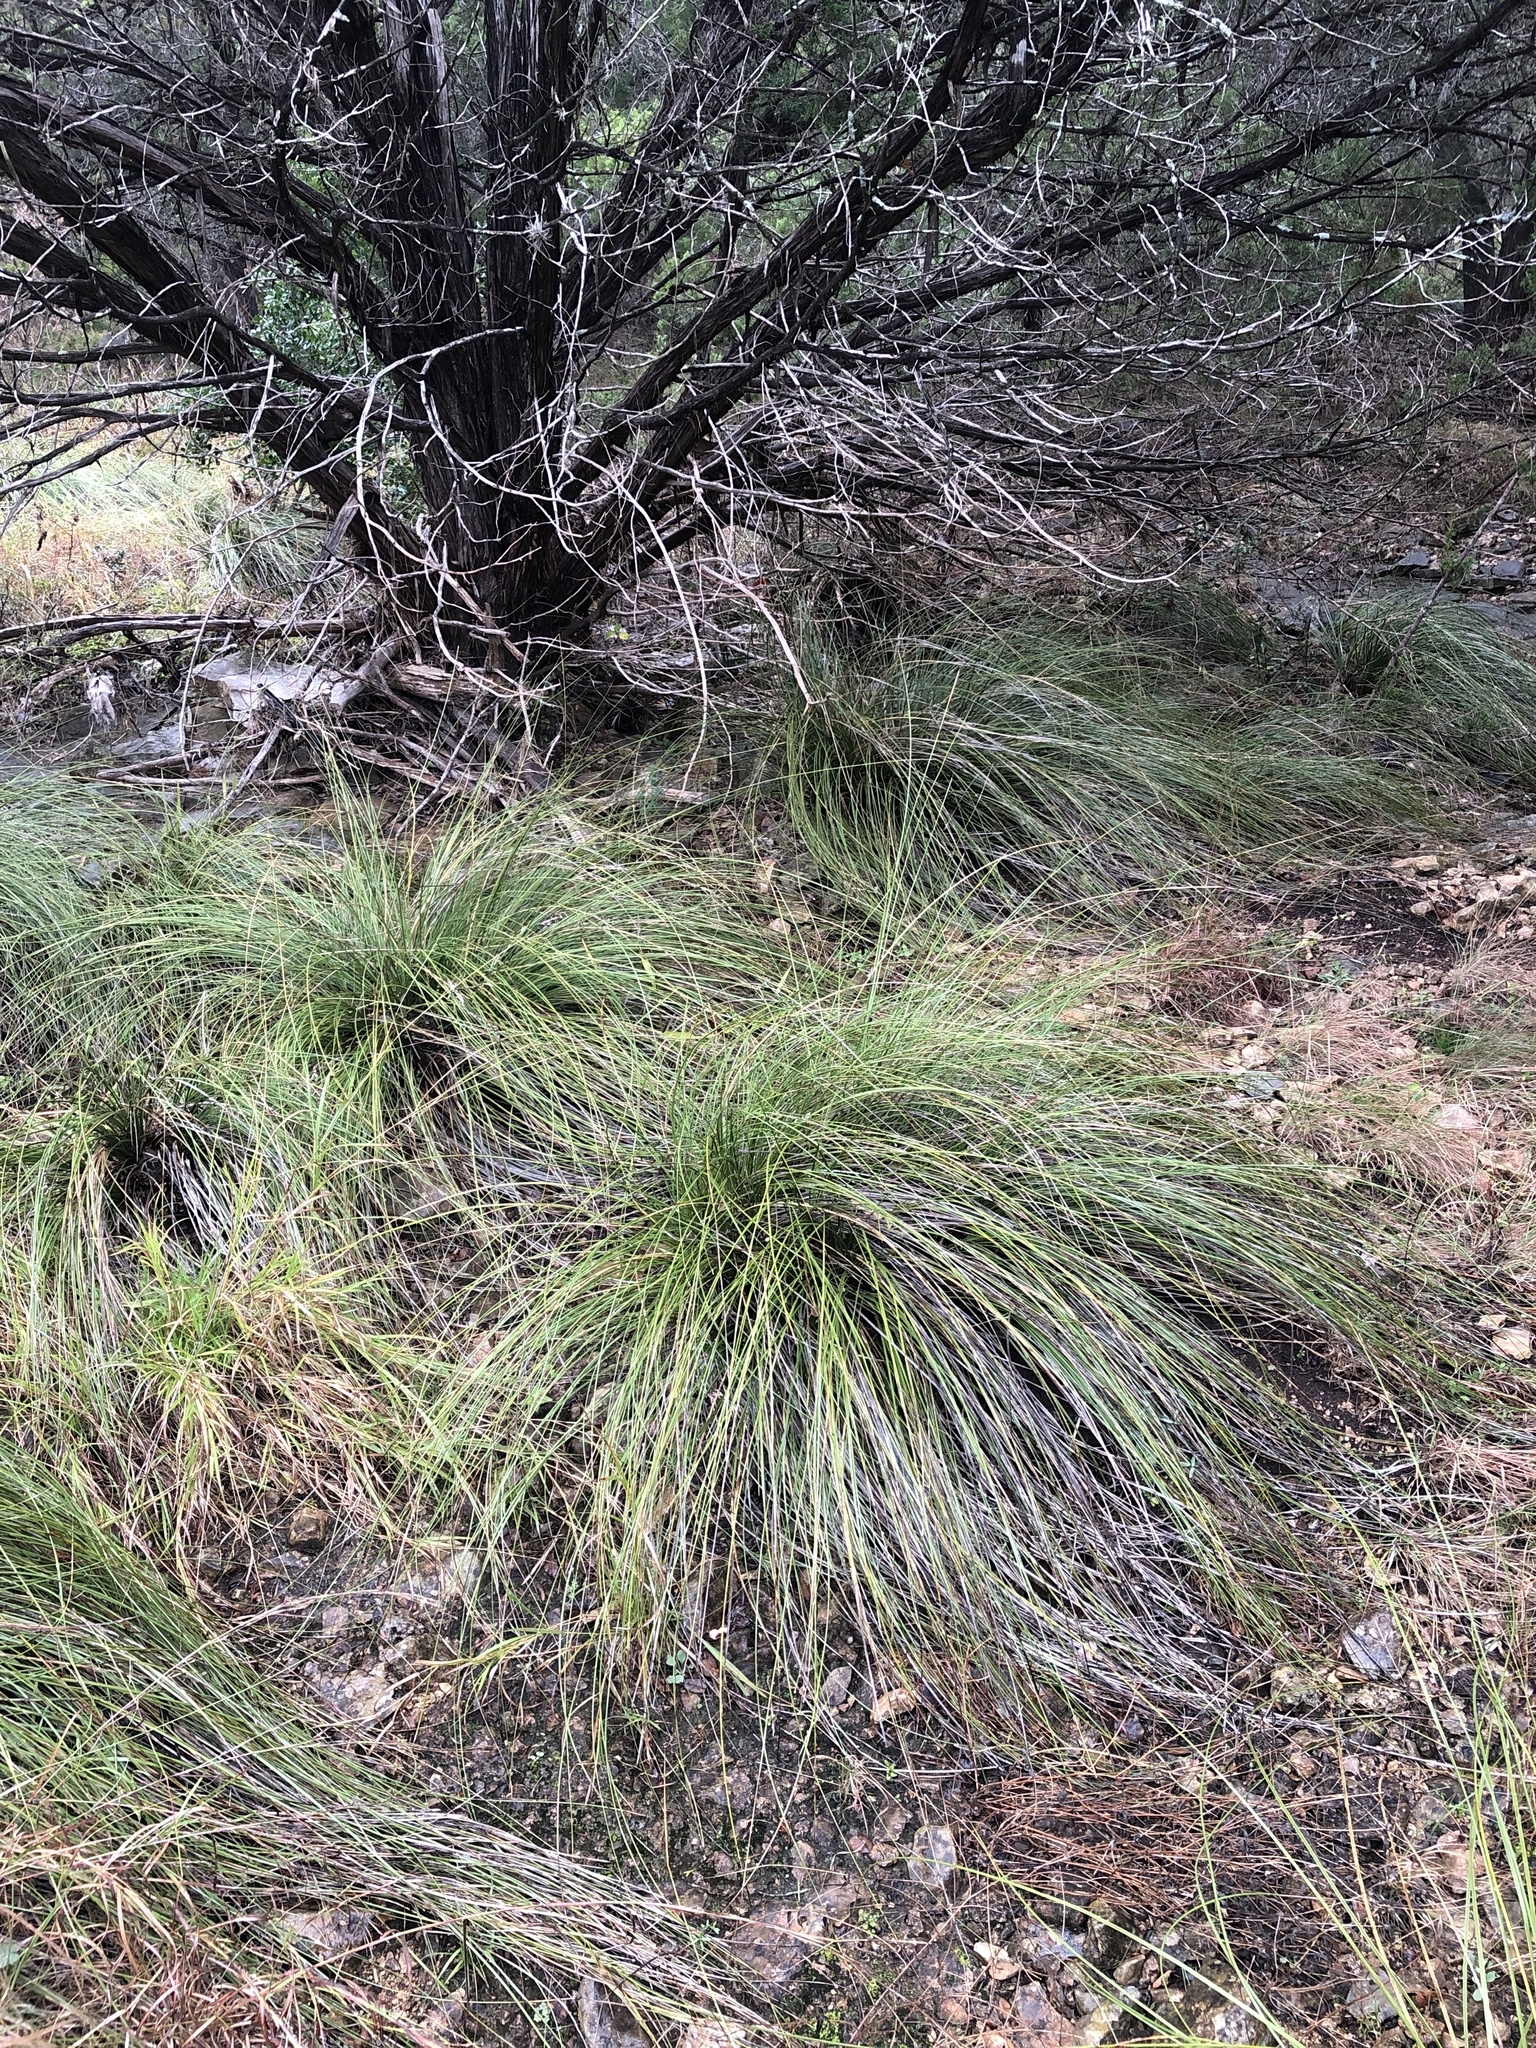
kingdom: Plantae
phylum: Tracheophyta
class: Liliopsida
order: Asparagales
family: Asparagaceae
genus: Nolina
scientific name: Nolina texana
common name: Texas sacahuiste
